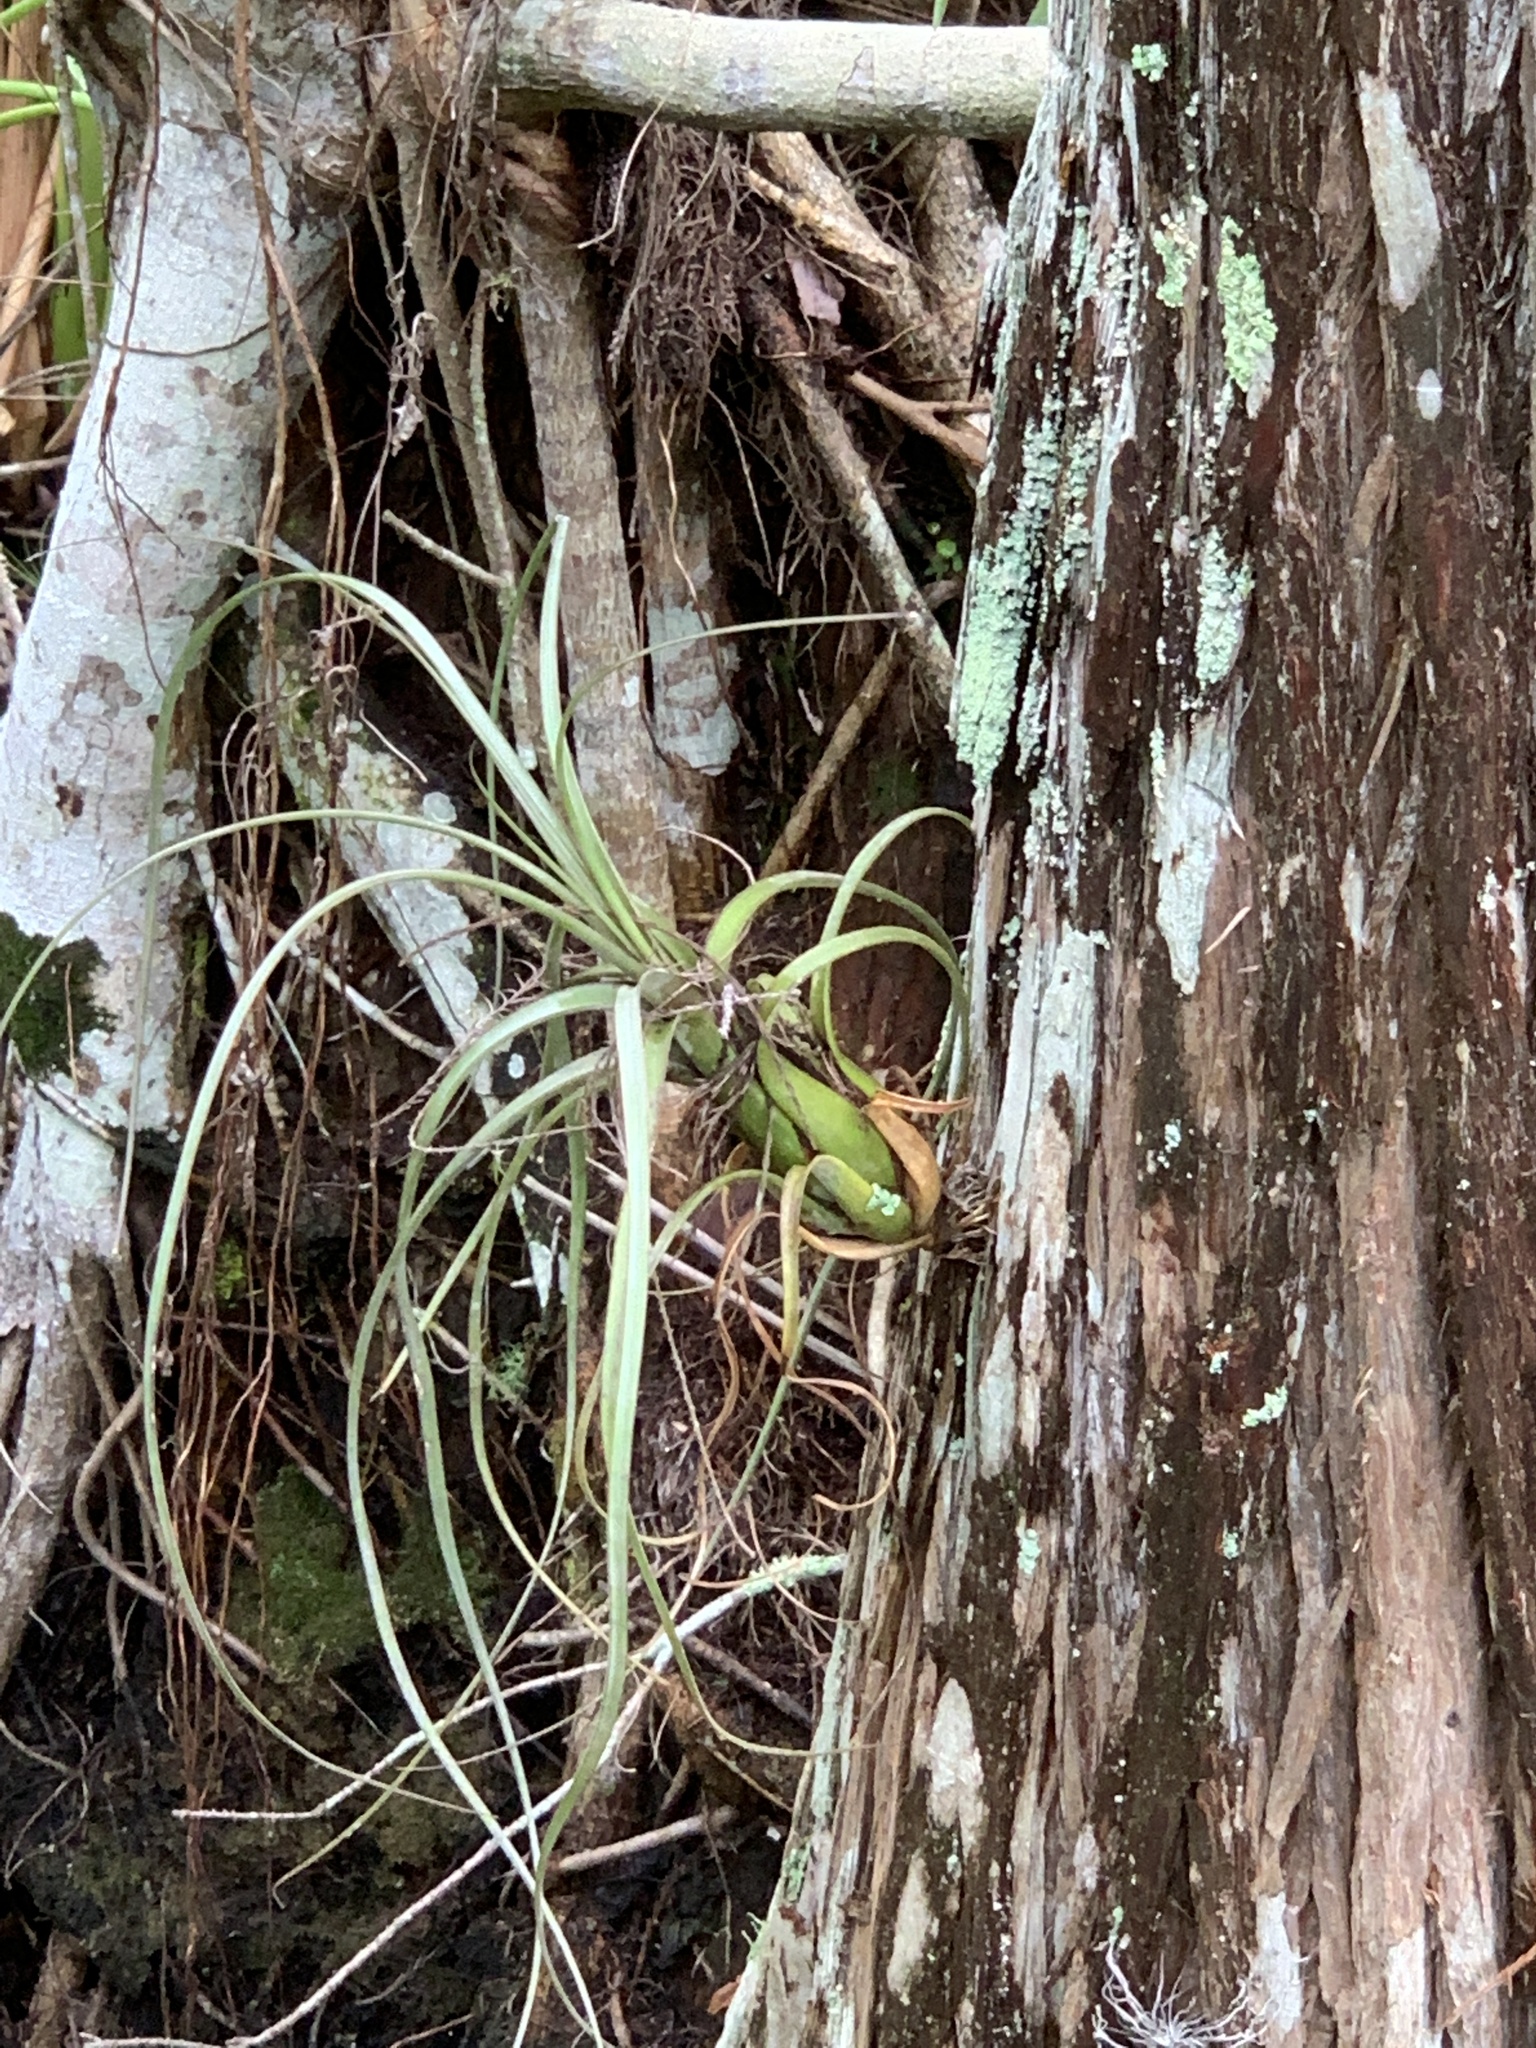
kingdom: Plantae
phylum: Tracheophyta
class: Liliopsida
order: Poales
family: Bromeliaceae
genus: Tillandsia
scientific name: Tillandsia balbisiana
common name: Northern needleleaf
